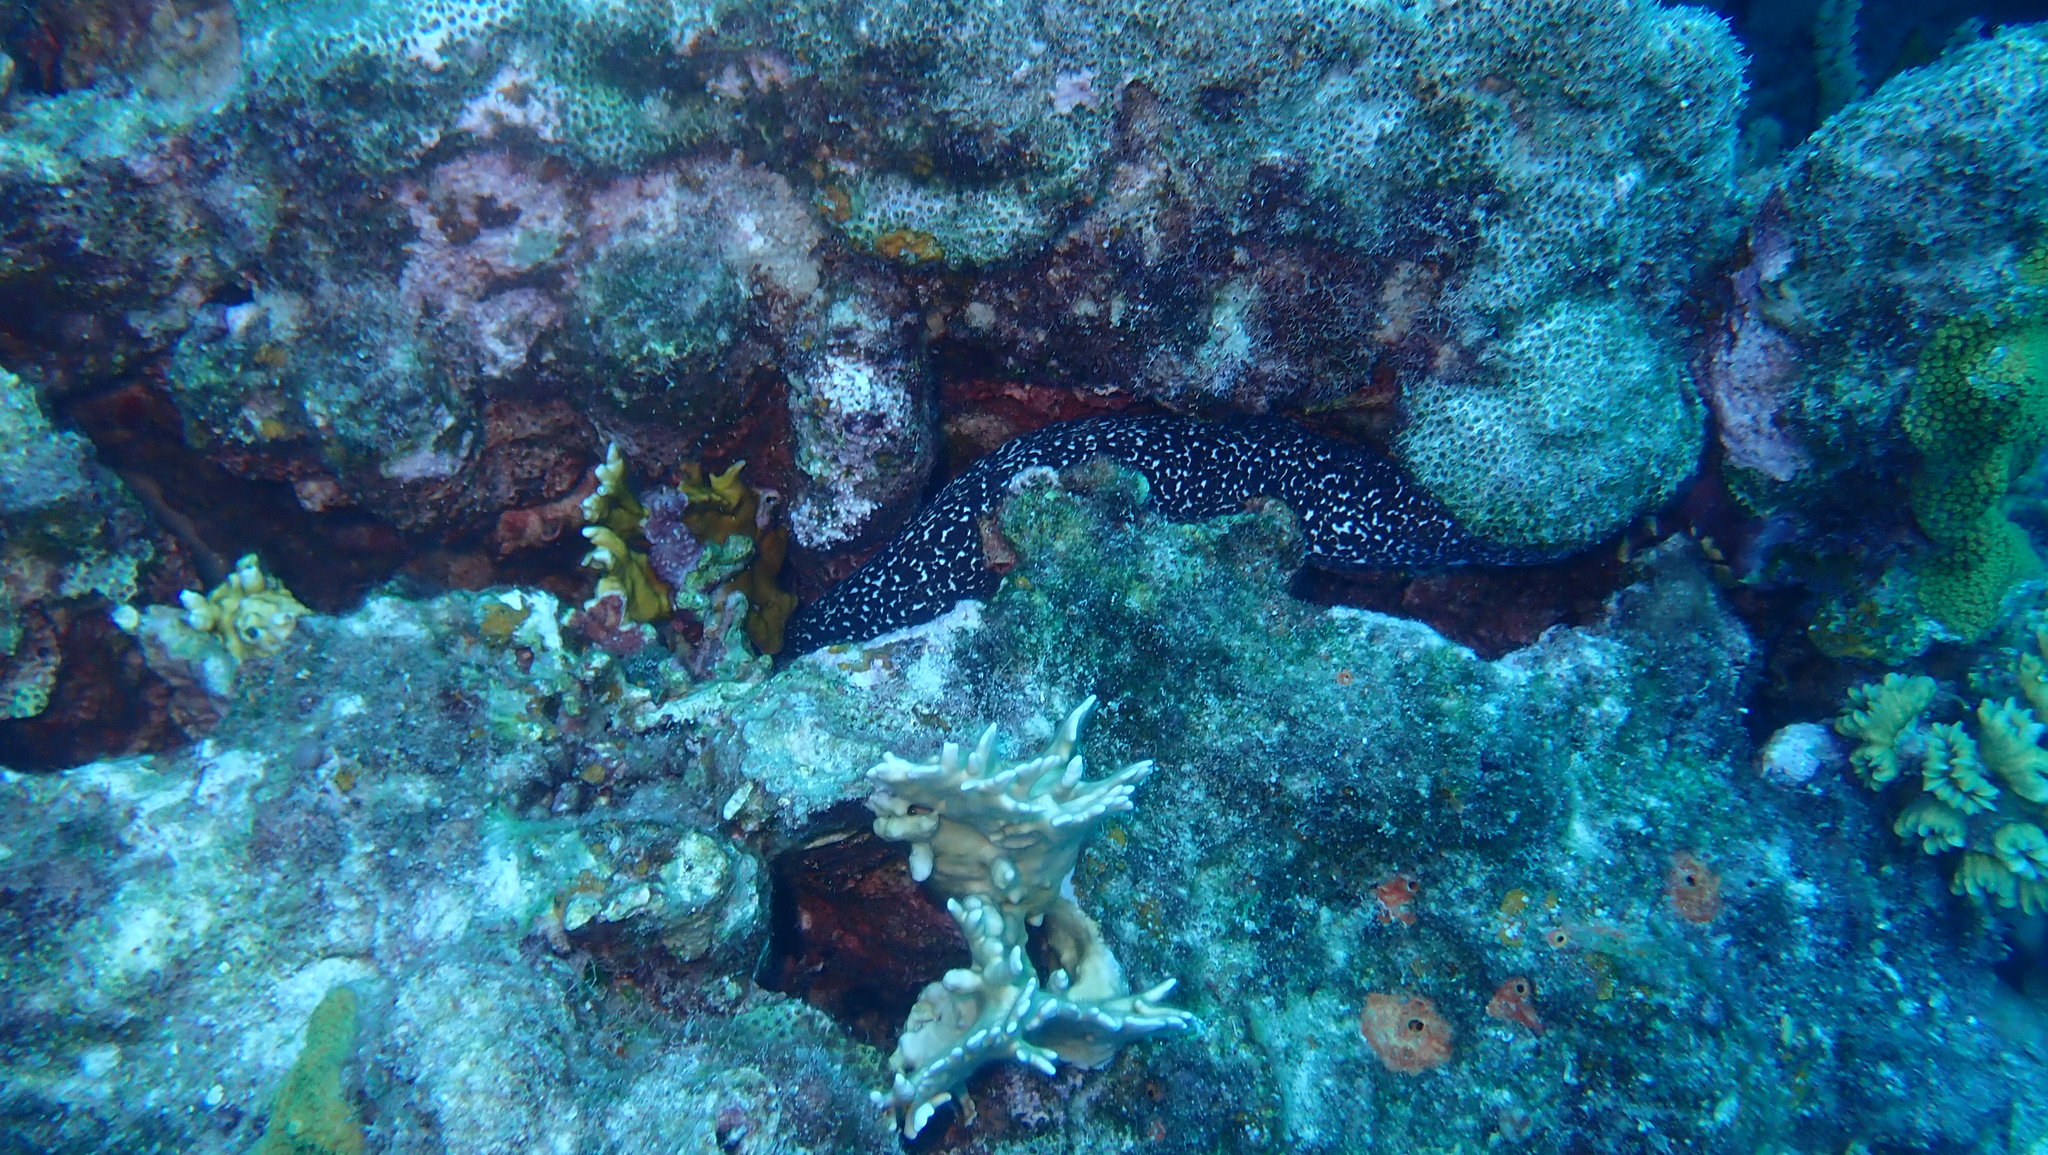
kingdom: Animalia
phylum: Chordata
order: Anguilliformes
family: Muraenidae
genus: Gymnothorax
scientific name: Gymnothorax moringa
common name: Spotted moray
